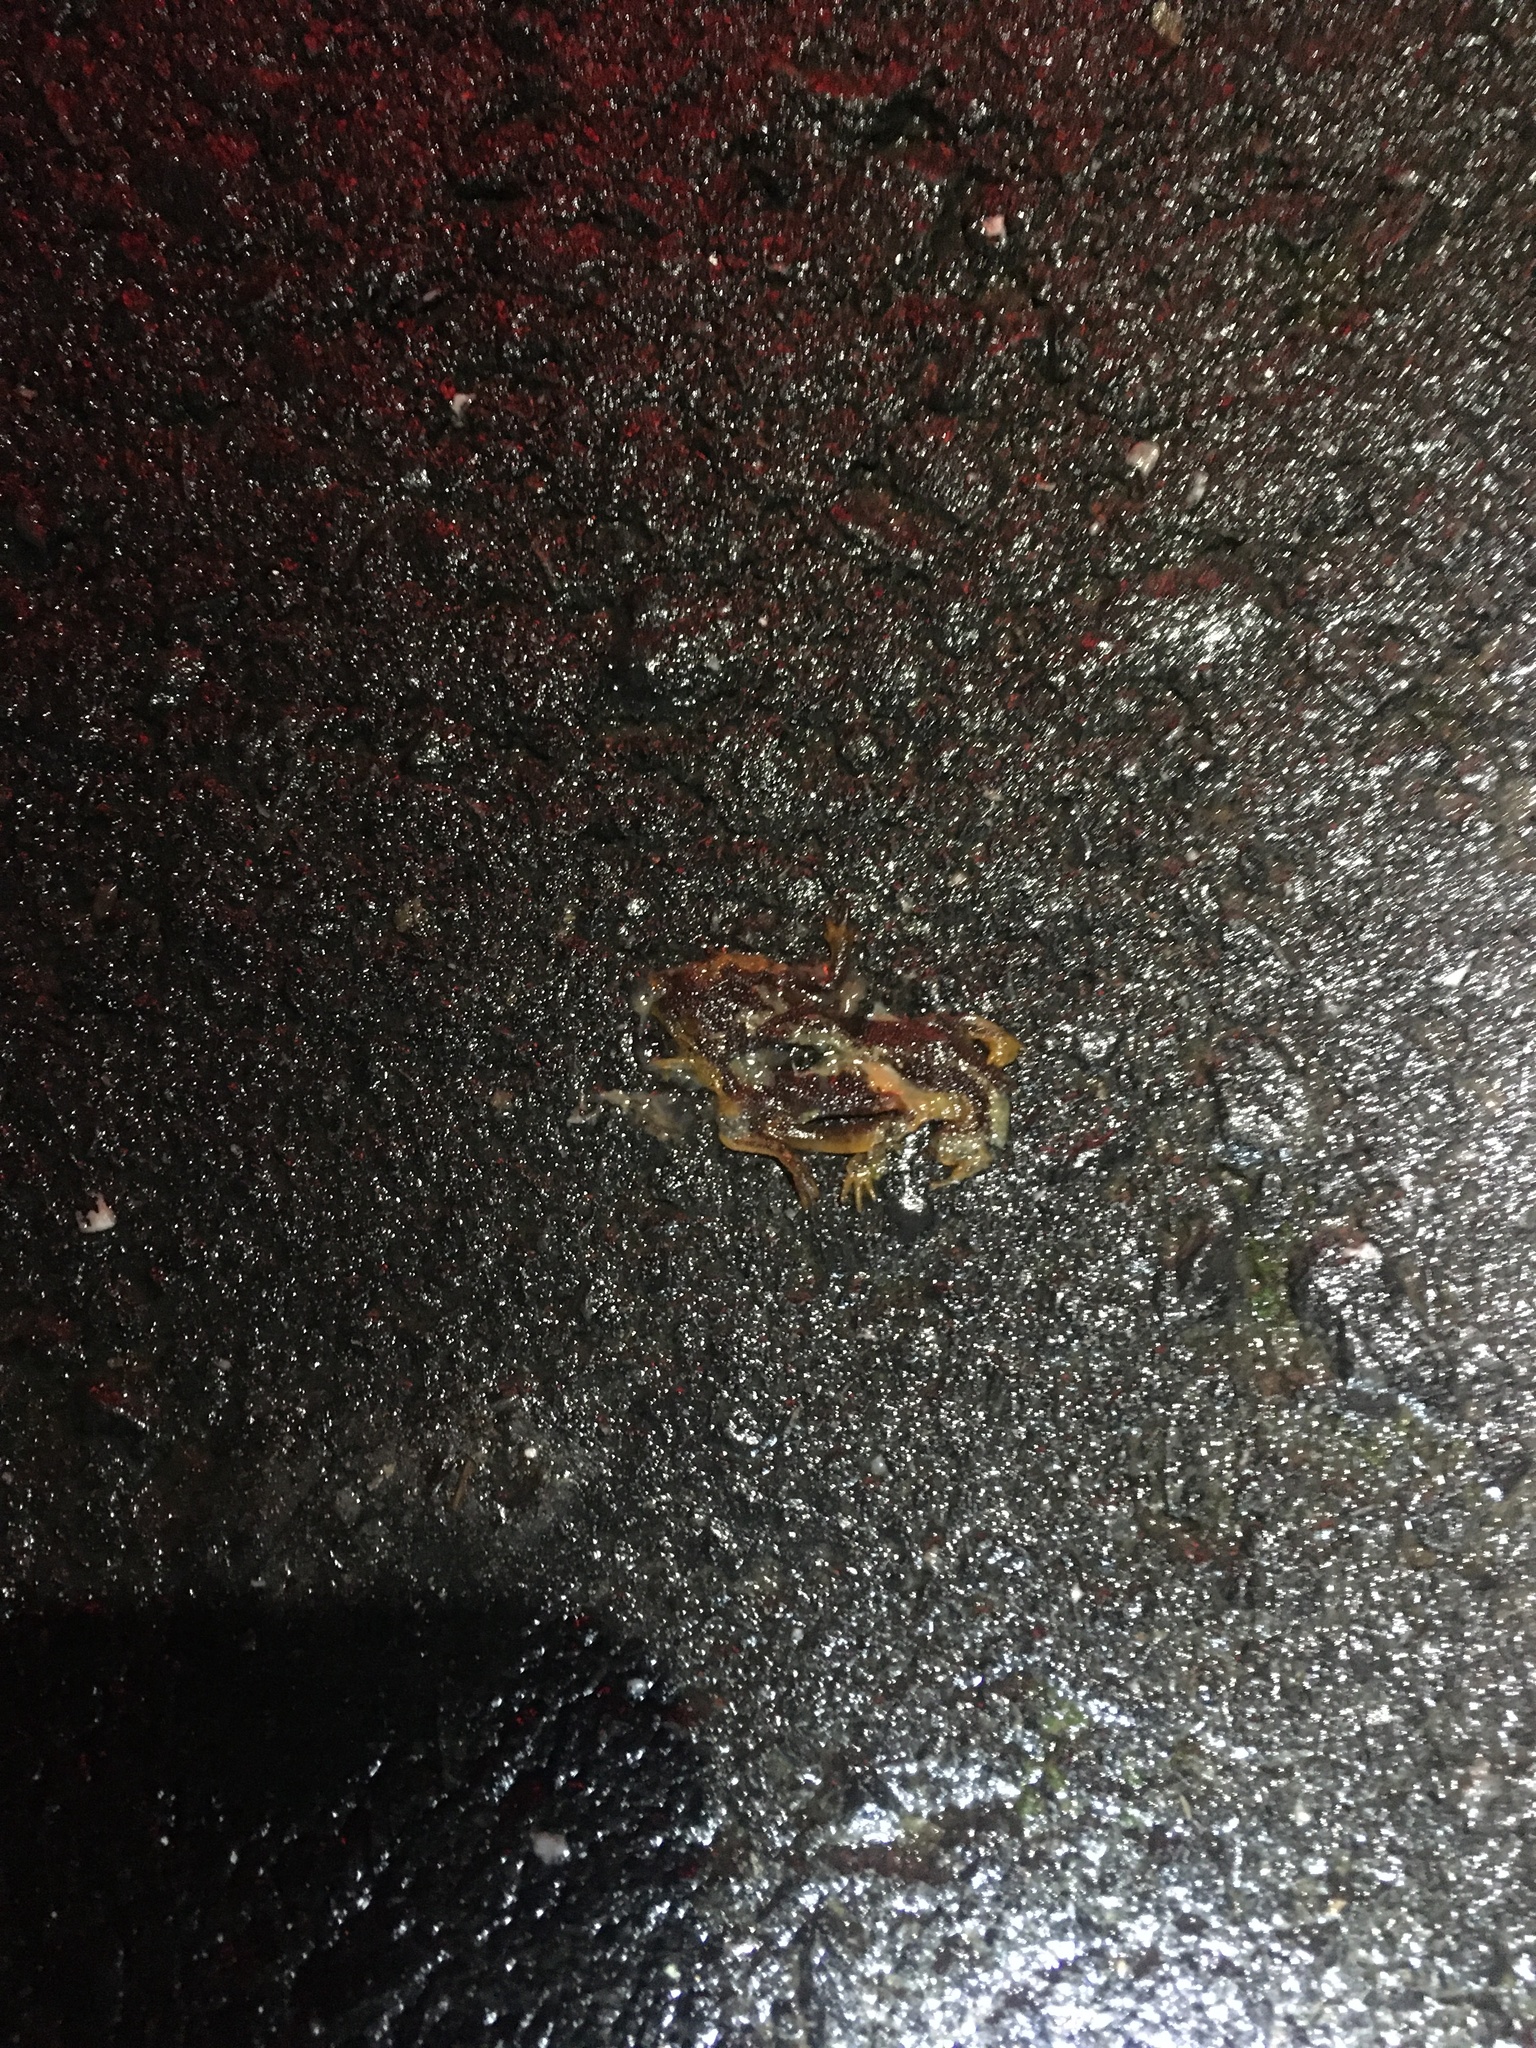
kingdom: Animalia
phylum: Chordata
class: Amphibia
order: Caudata
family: Salamandridae
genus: Taricha
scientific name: Taricha
